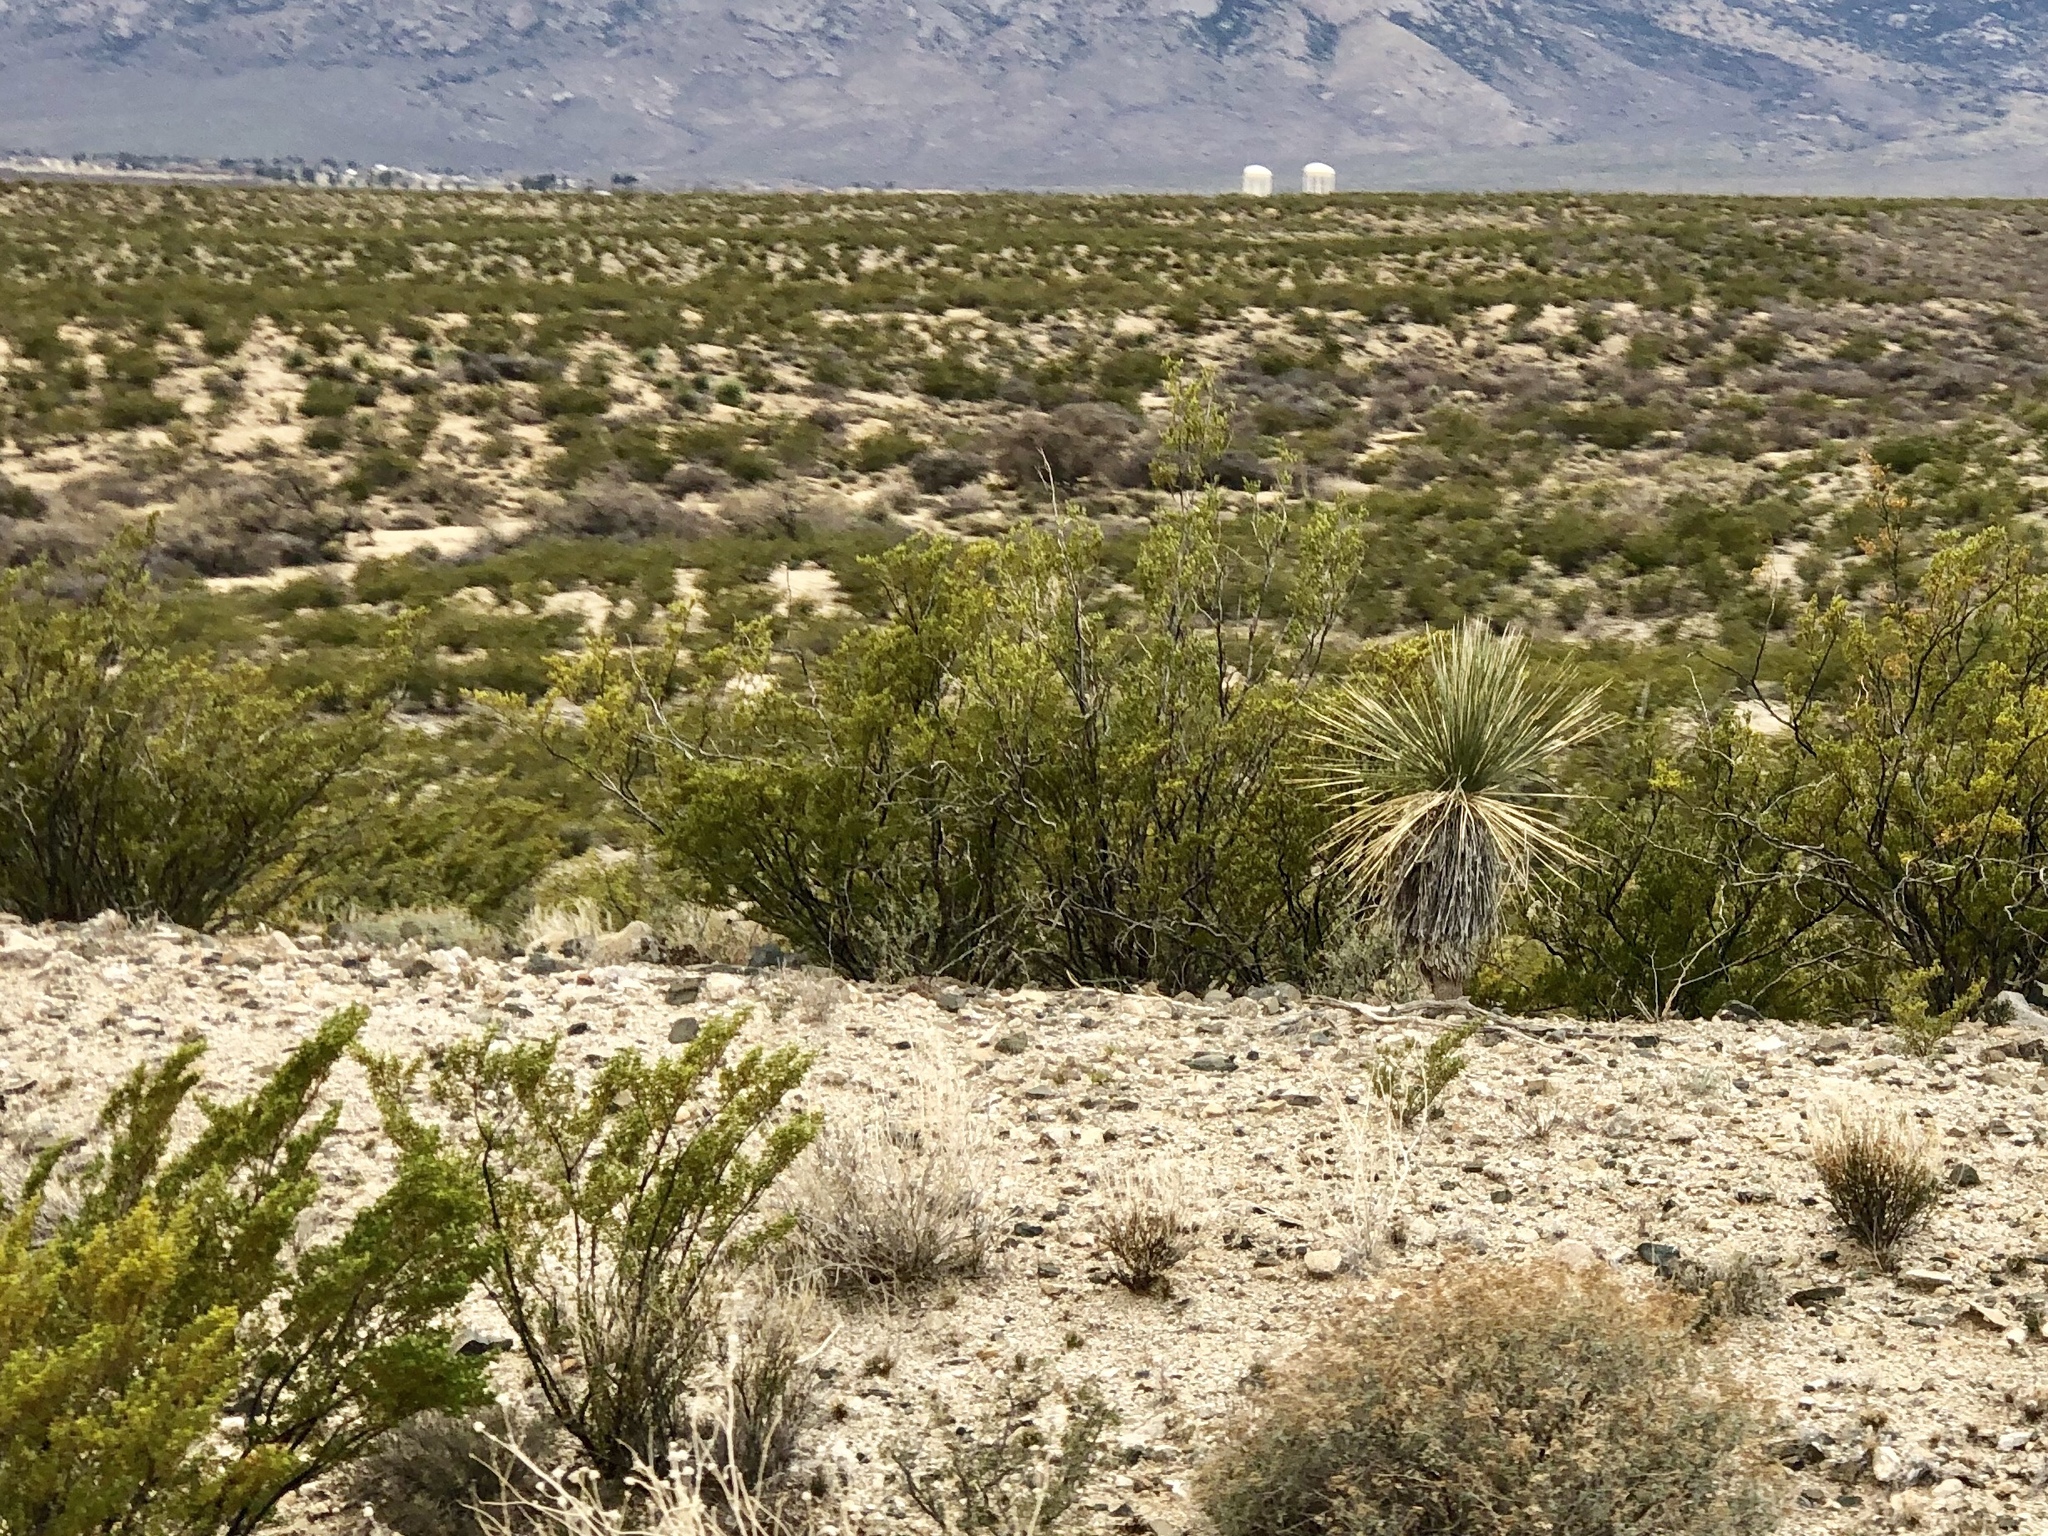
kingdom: Plantae
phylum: Tracheophyta
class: Magnoliopsida
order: Zygophyllales
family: Zygophyllaceae
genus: Larrea
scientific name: Larrea tridentata
